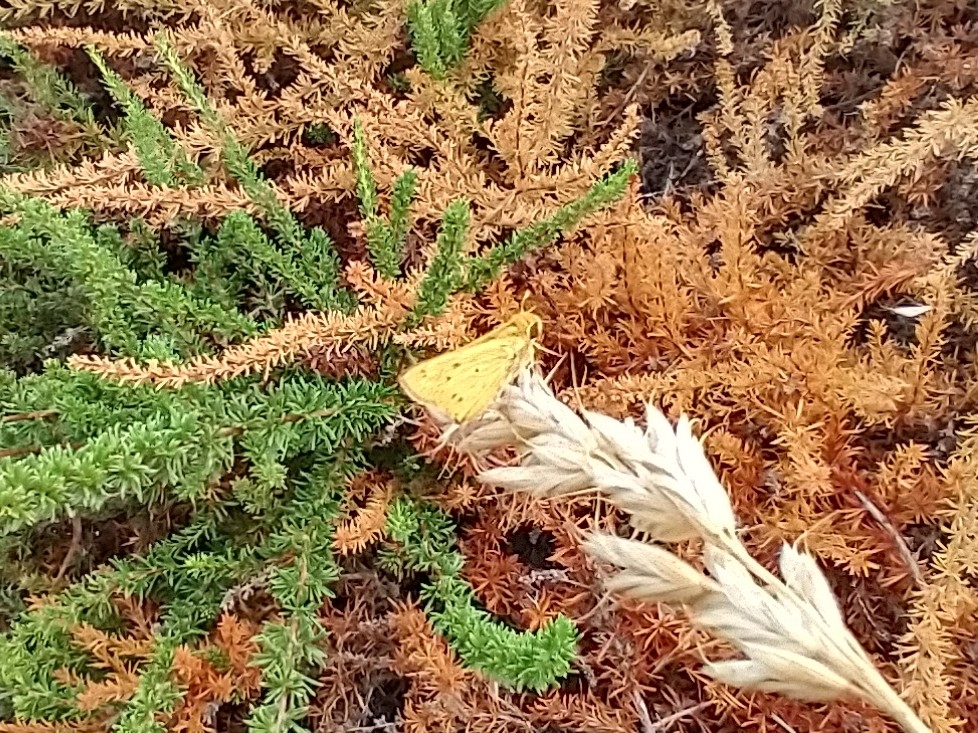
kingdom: Animalia
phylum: Arthropoda
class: Insecta
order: Lepidoptera
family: Hesperiidae
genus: Hylephila
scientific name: Hylephila phyleus
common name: Fiery skipper
